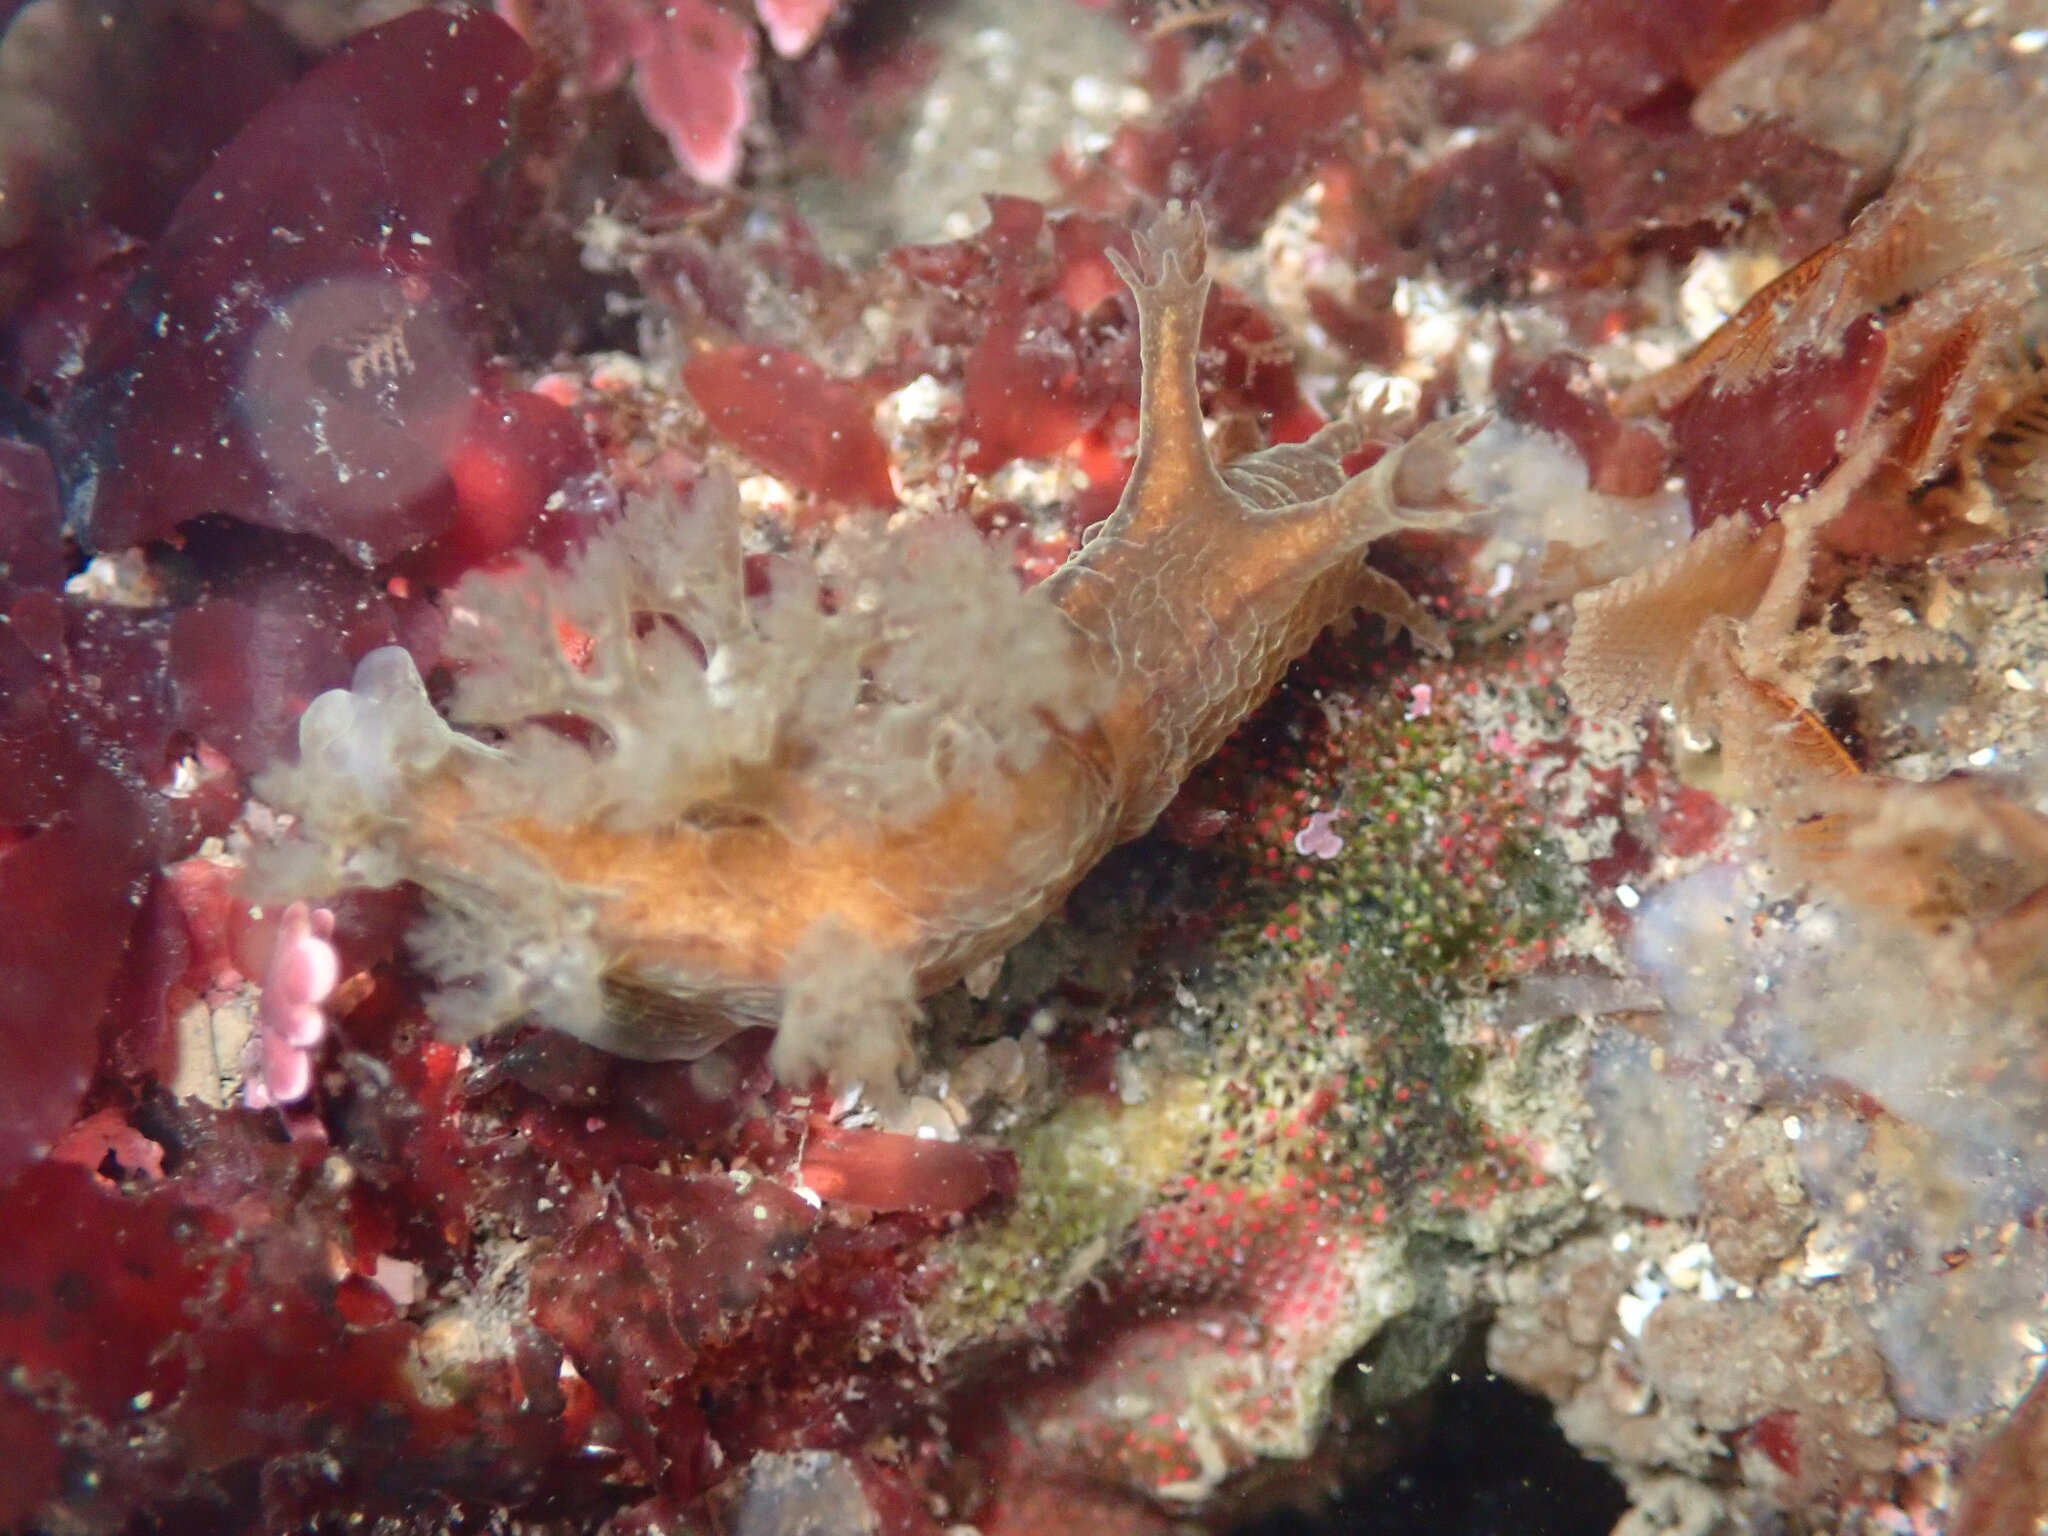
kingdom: Animalia
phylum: Mollusca
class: Gastropoda
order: Nudibranchia
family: Dendronotidae
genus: Dendronotus
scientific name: Dendronotus subramosus
